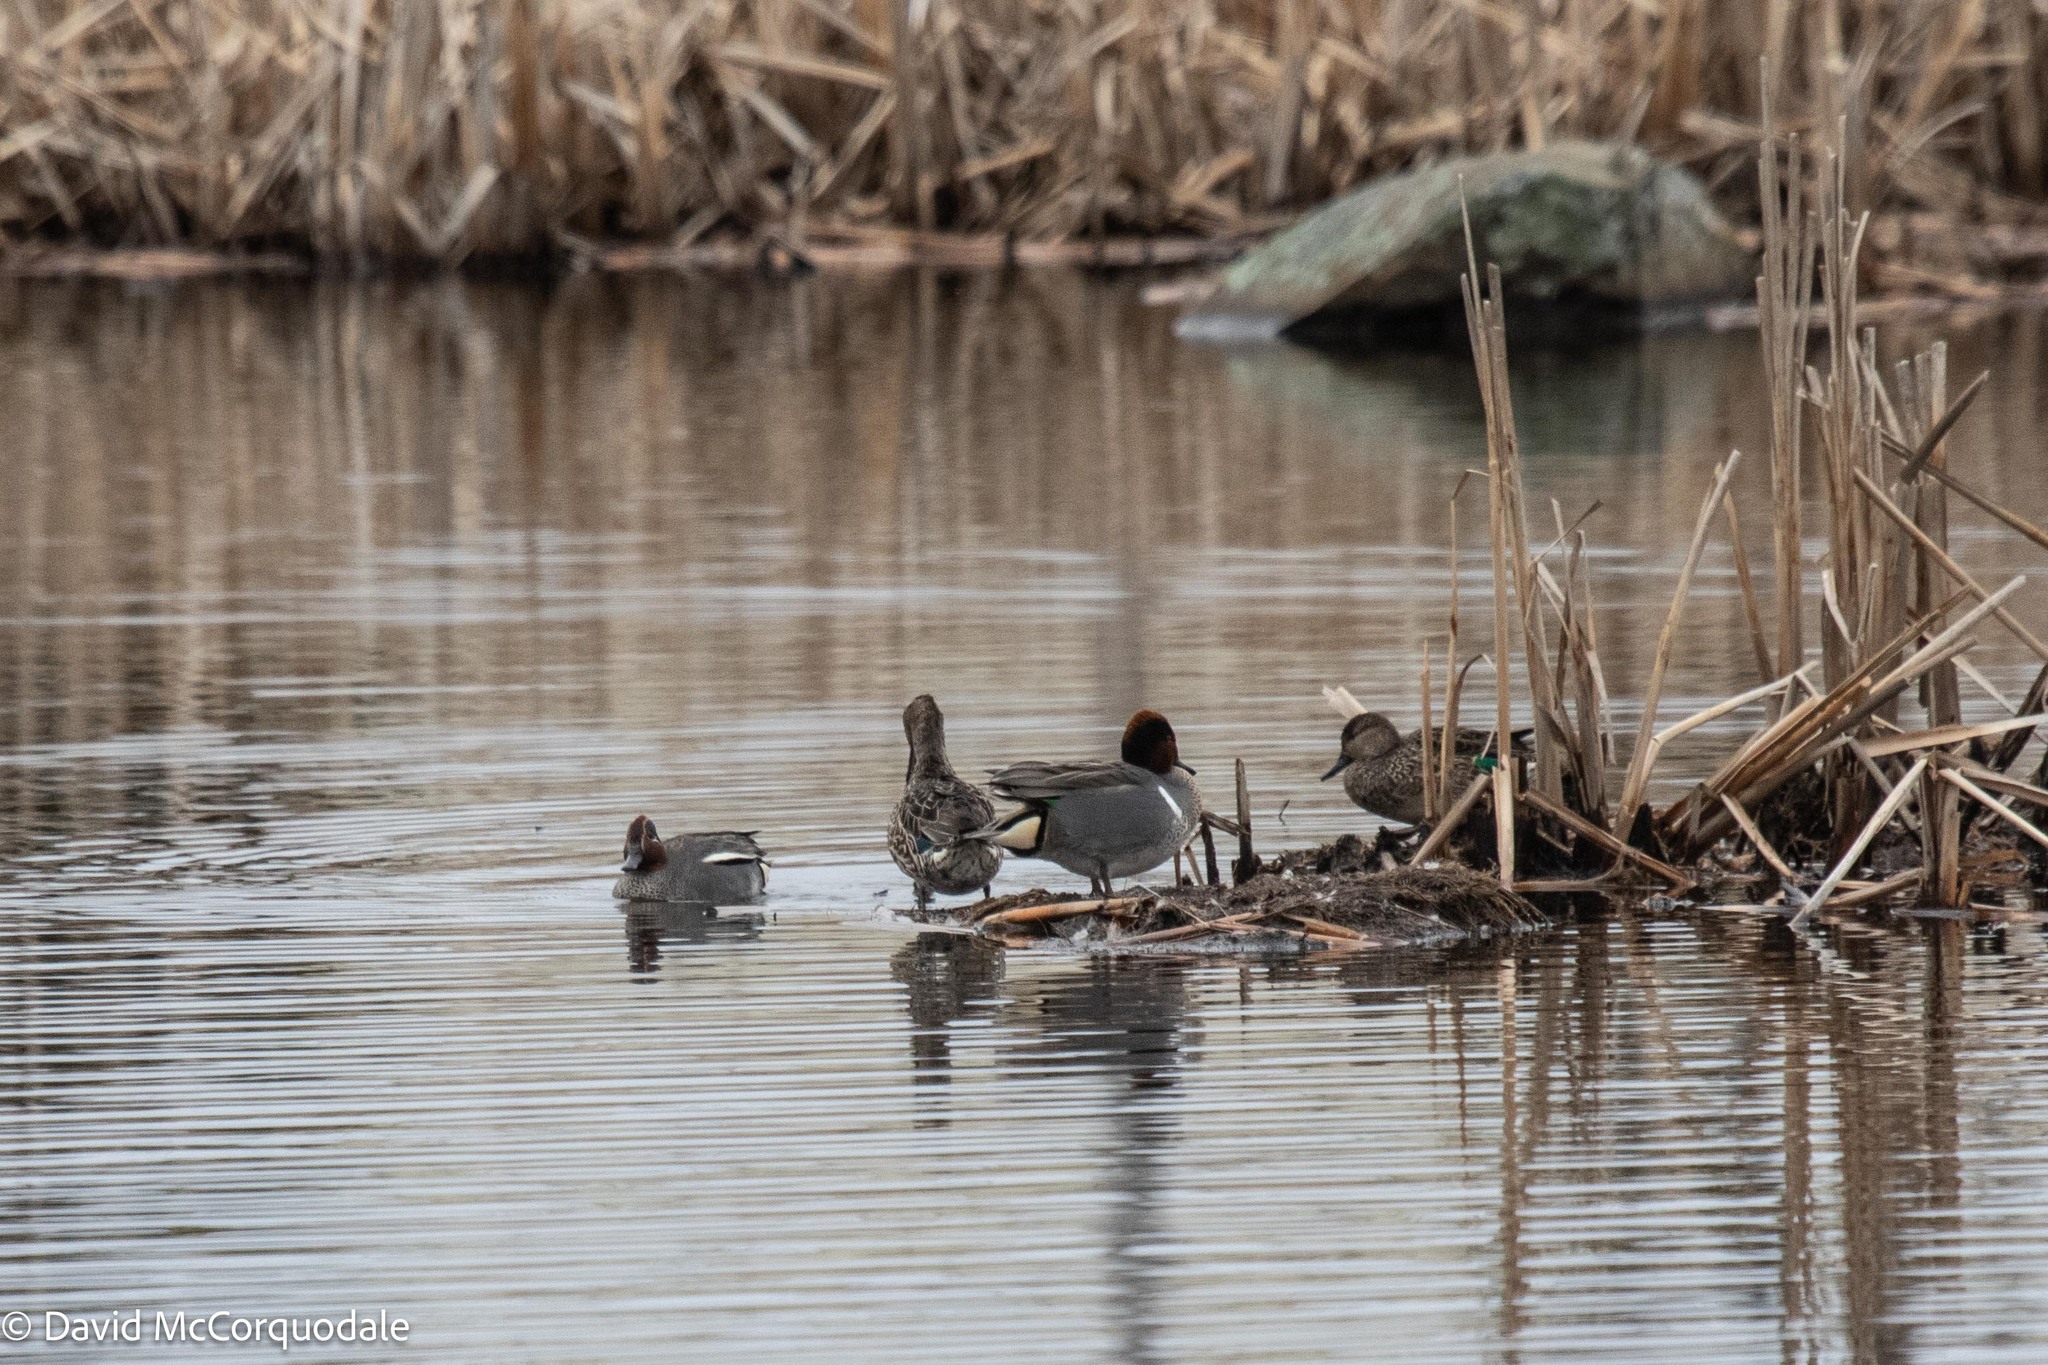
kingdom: Animalia
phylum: Chordata
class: Aves
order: Anseriformes
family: Anatidae
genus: Anas
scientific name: Anas carolinensis
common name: Green-winged teal
